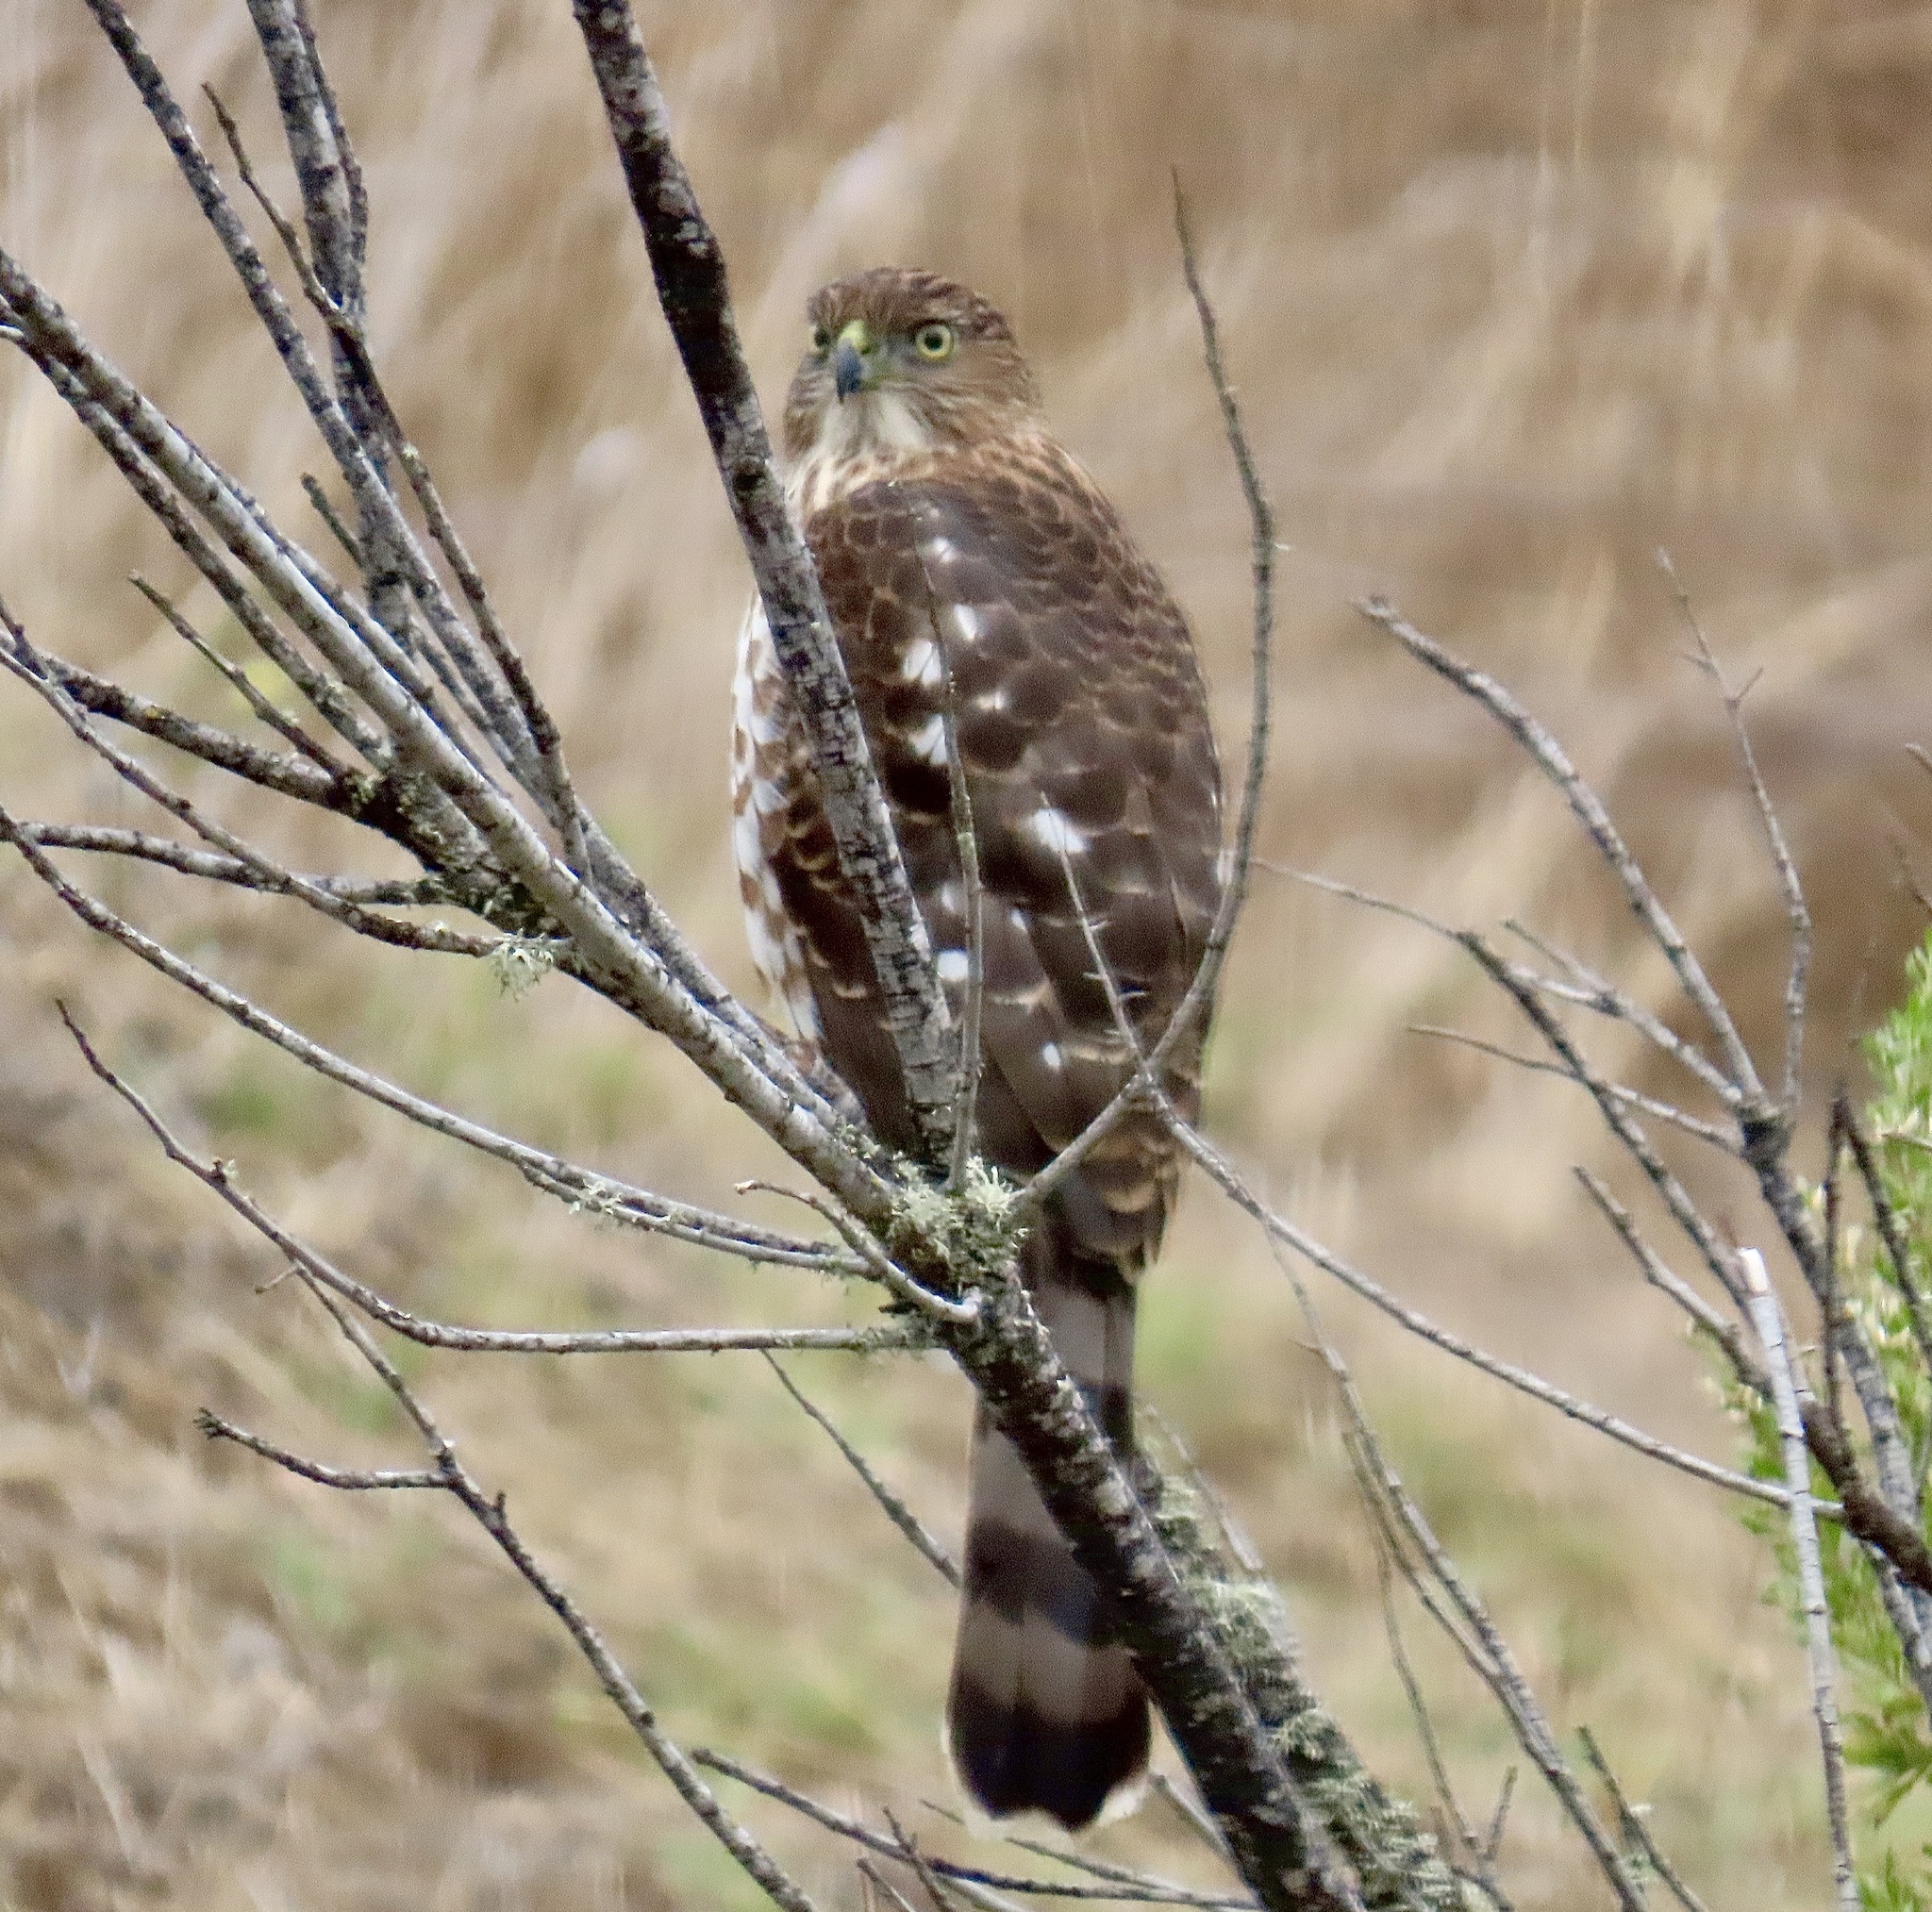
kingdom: Animalia
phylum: Chordata
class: Aves
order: Accipitriformes
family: Accipitridae
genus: Accipiter
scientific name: Accipiter cooperii
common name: Cooper's hawk
